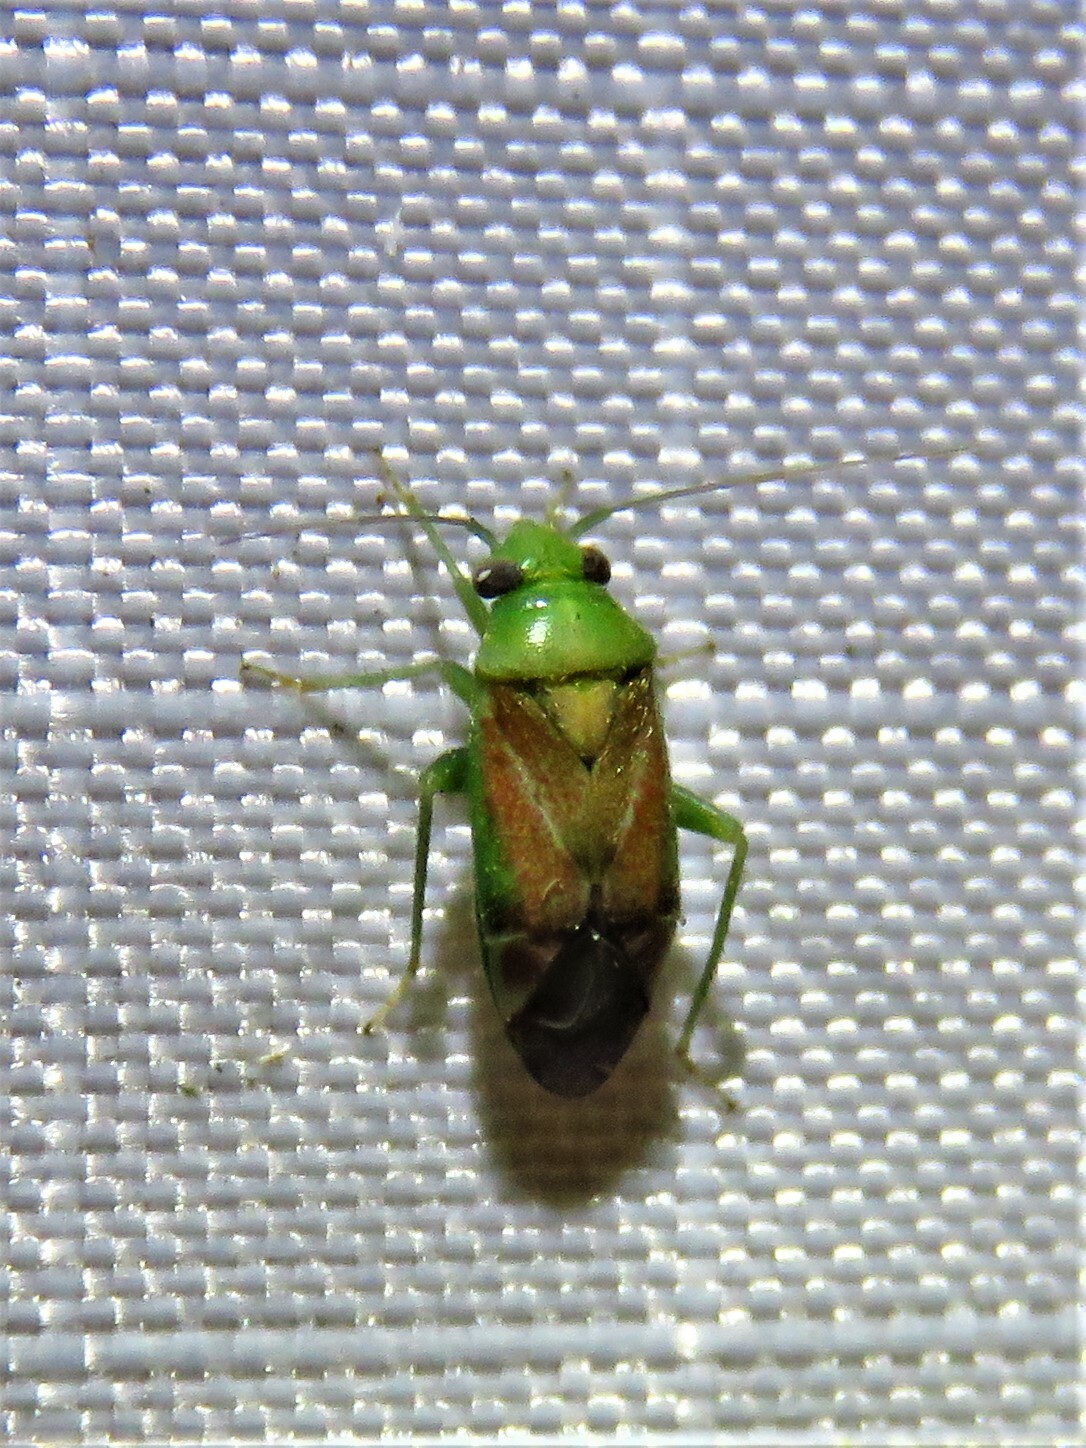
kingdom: Animalia
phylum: Arthropoda
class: Insecta
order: Hemiptera
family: Miridae
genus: Dichrooscytus
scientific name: Dichrooscytus
